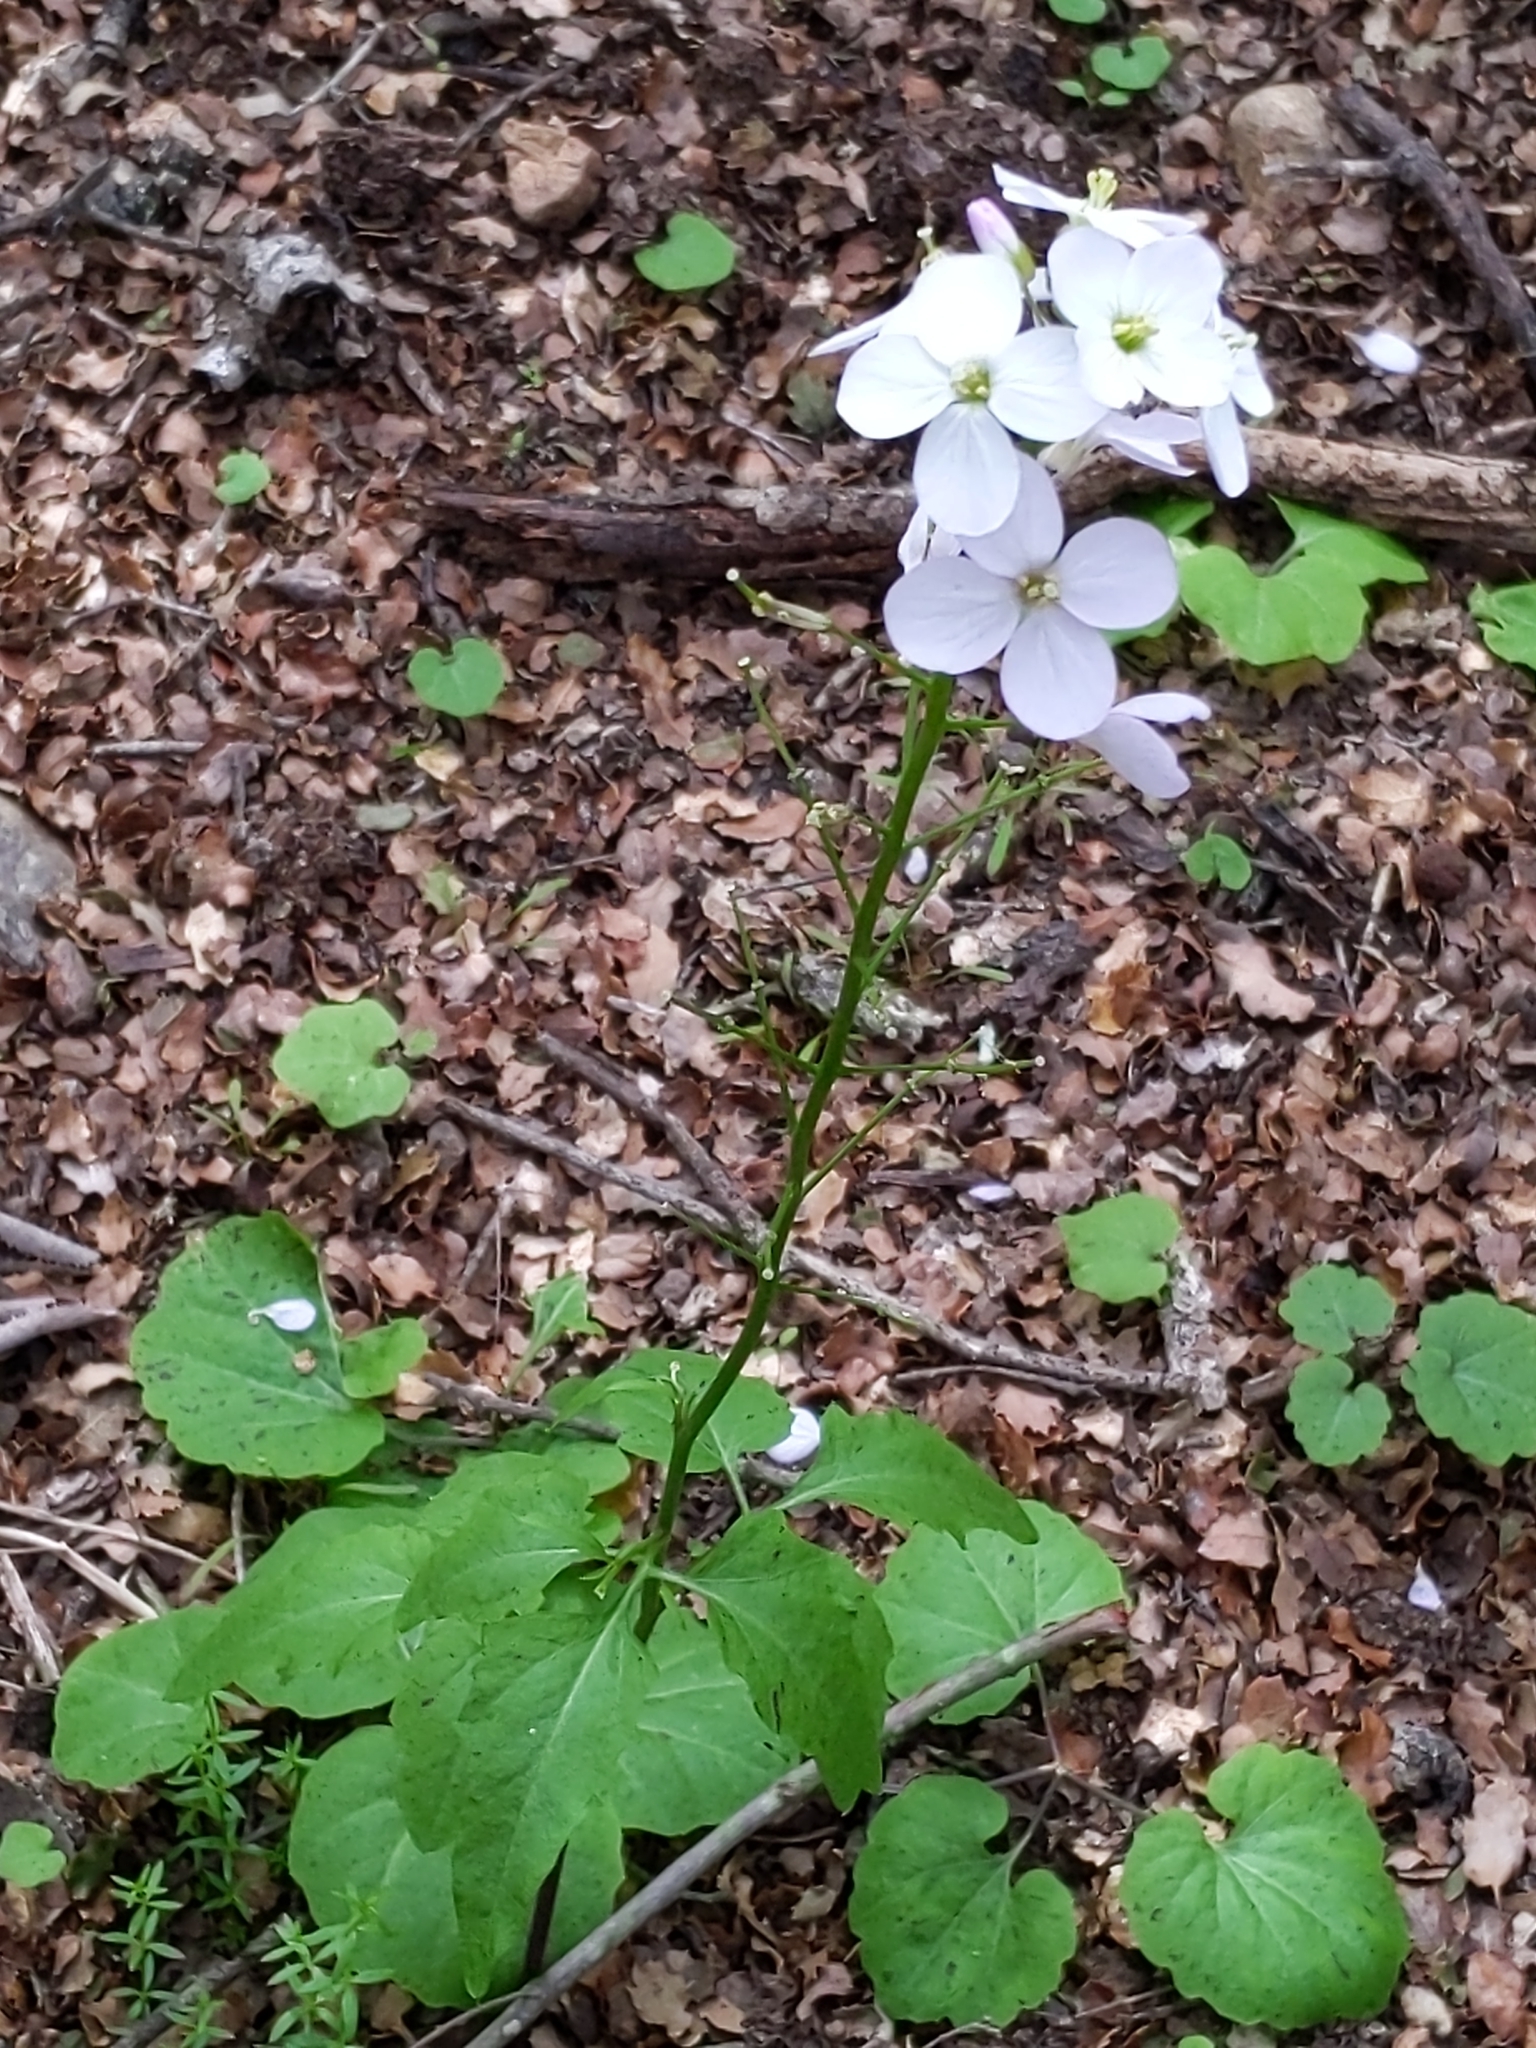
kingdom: Plantae
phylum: Tracheophyta
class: Magnoliopsida
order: Brassicales
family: Brassicaceae
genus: Cardamine
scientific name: Cardamine californica
